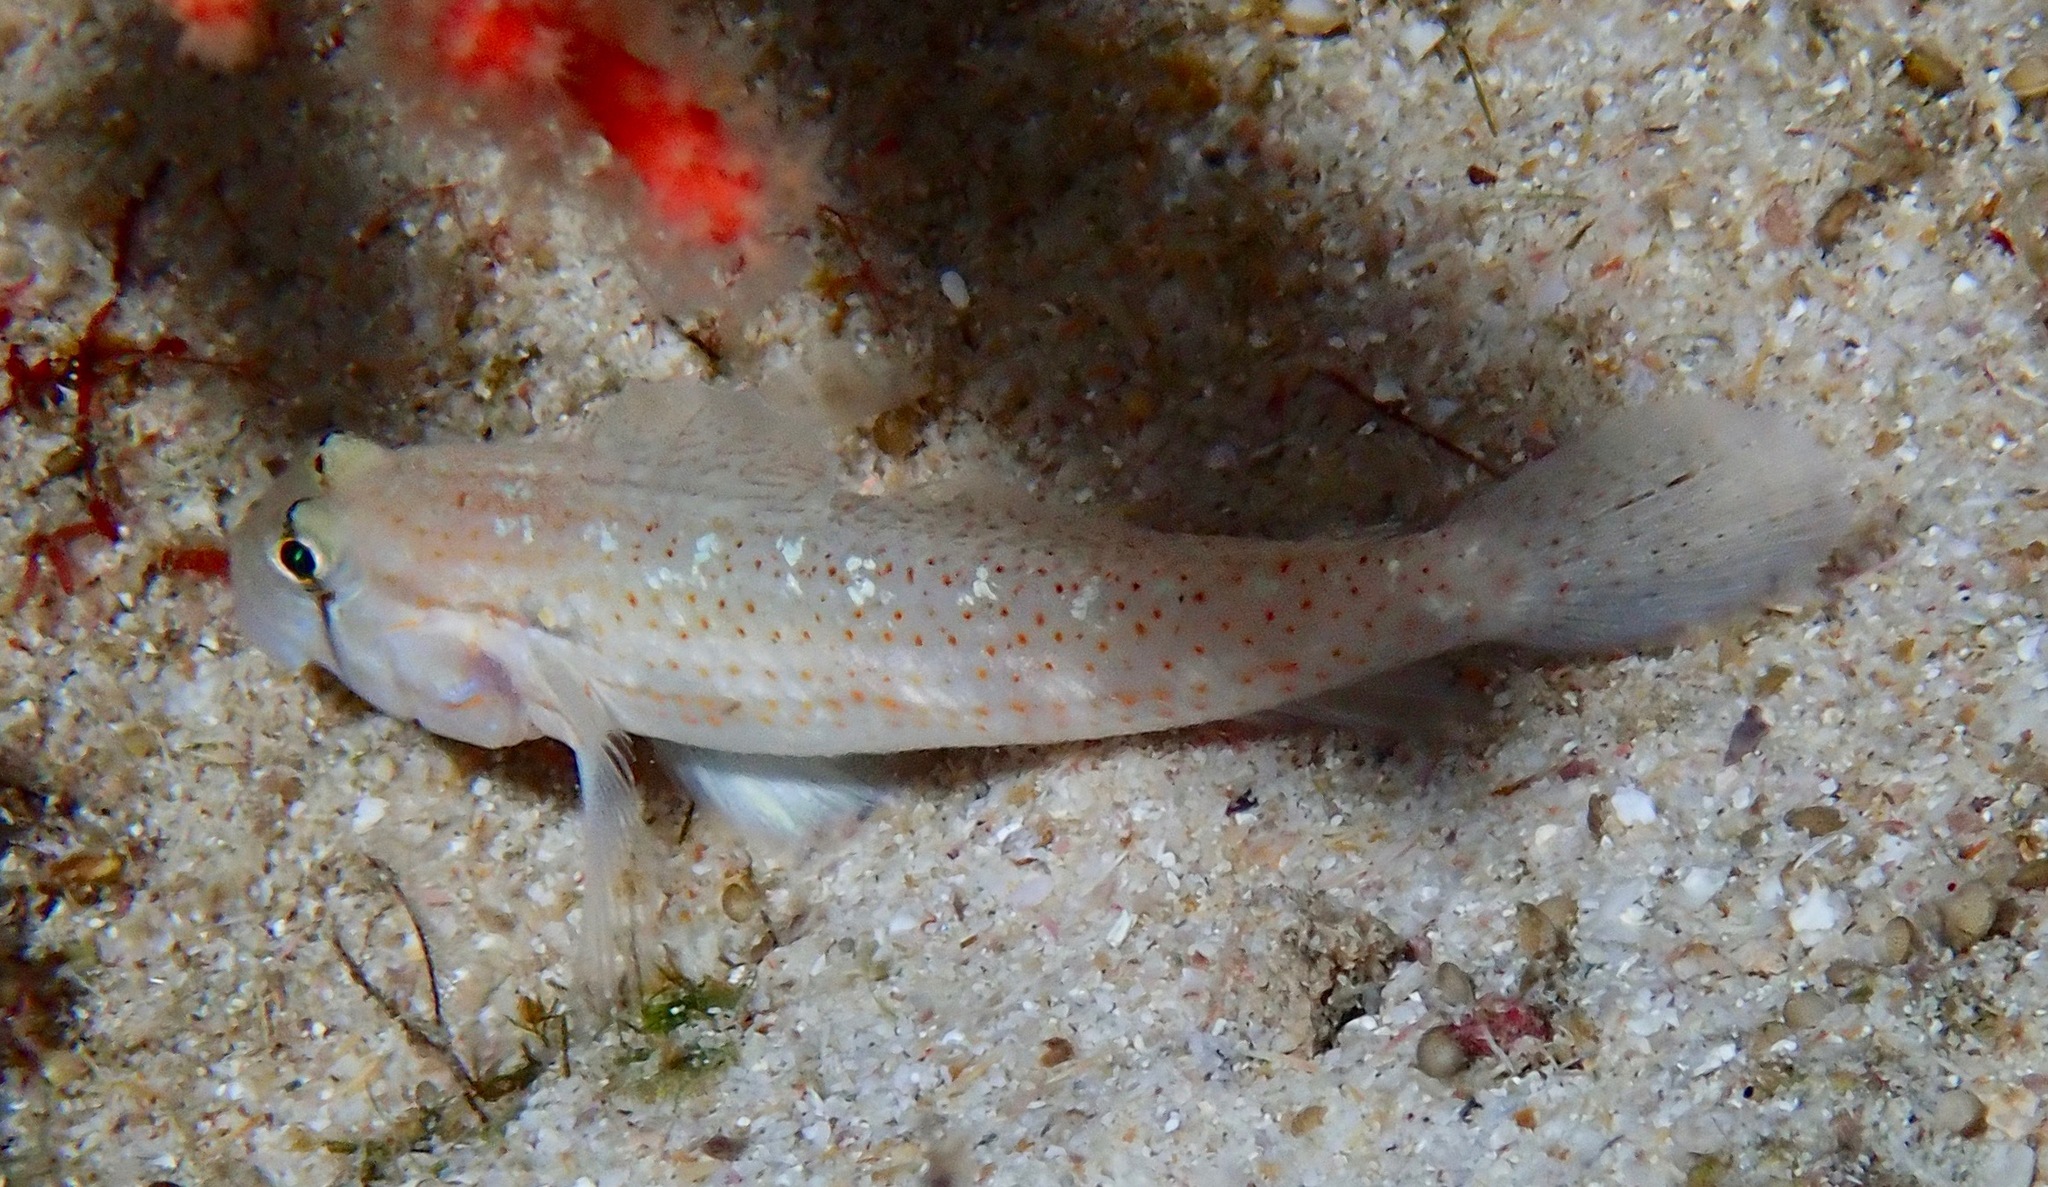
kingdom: Animalia
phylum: Chordata
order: Perciformes
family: Gobiidae
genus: Gnatholepis
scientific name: Gnatholepis cauerensis
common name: Bridled goby
